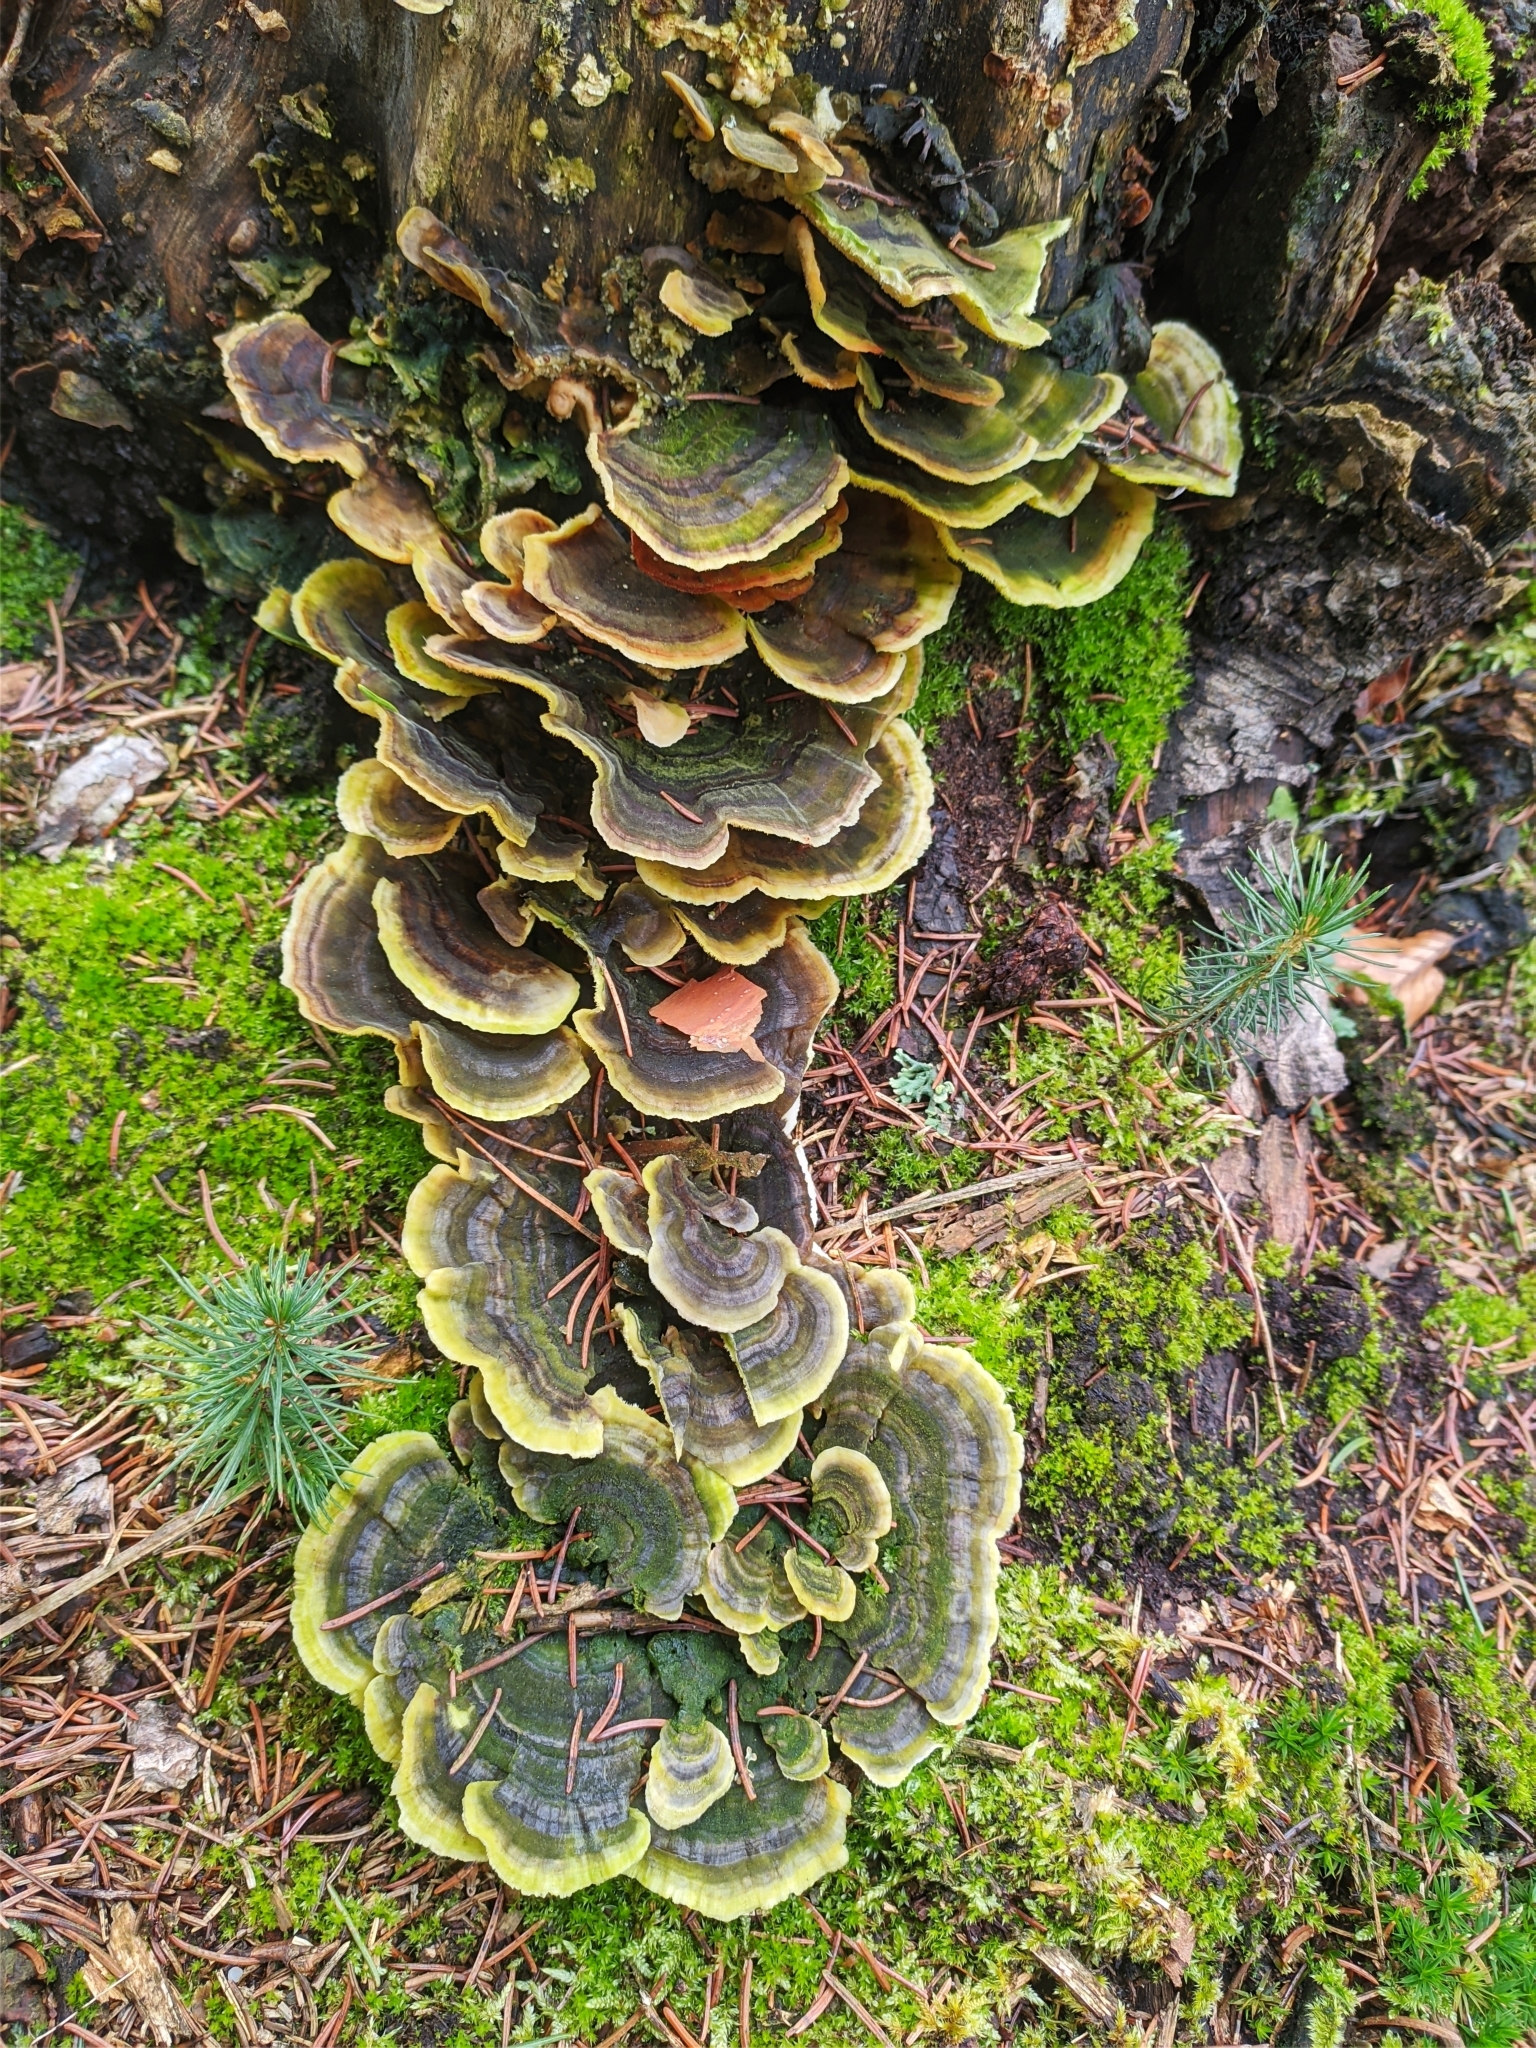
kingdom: Fungi
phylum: Basidiomycota
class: Agaricomycetes
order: Polyporales
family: Polyporaceae
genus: Trametes
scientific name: Trametes versicolor
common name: Turkeytail
